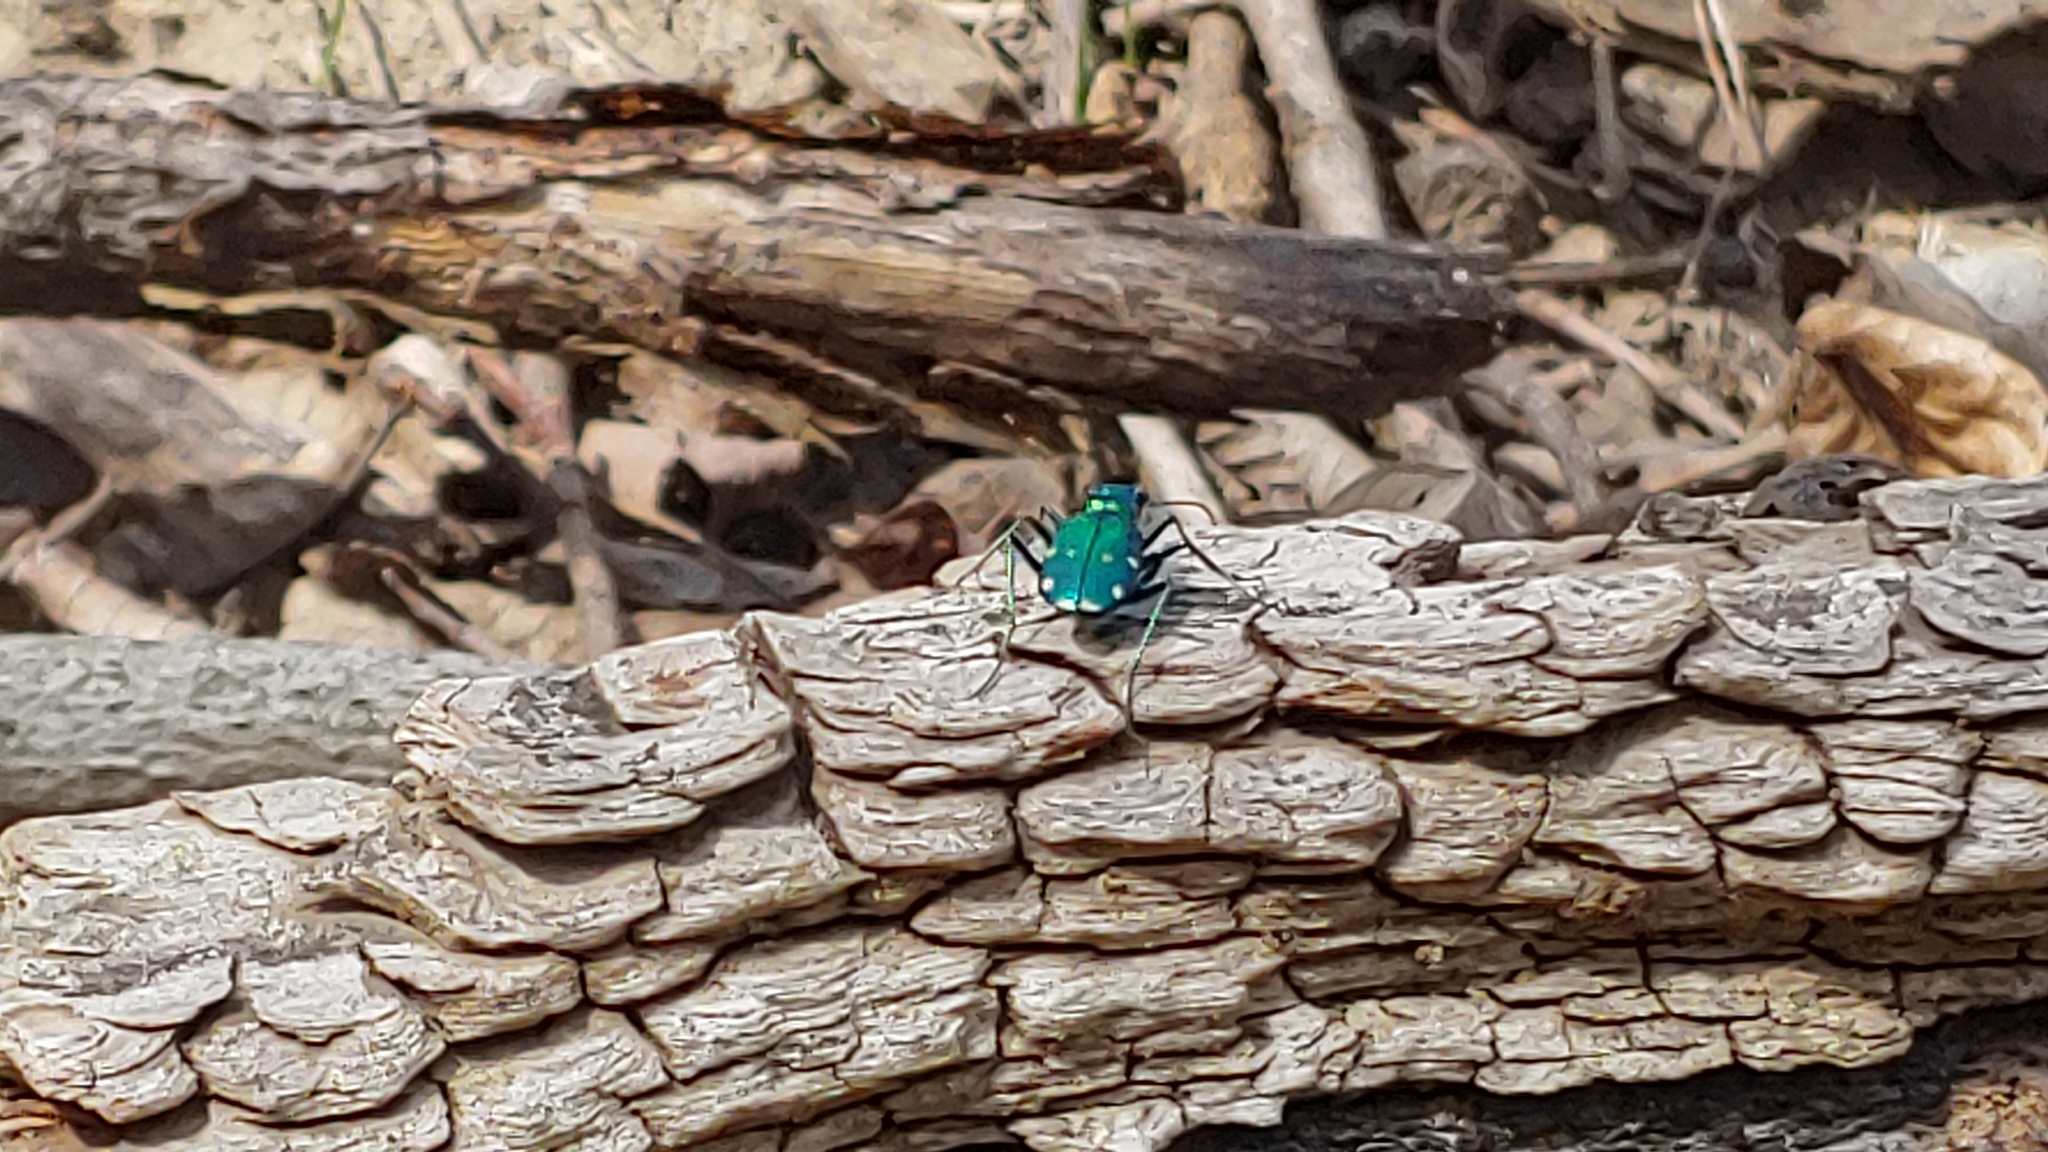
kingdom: Animalia
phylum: Arthropoda
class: Insecta
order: Coleoptera
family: Carabidae
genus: Cicindela
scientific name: Cicindela sexguttata
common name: Six-spotted tiger beetle
